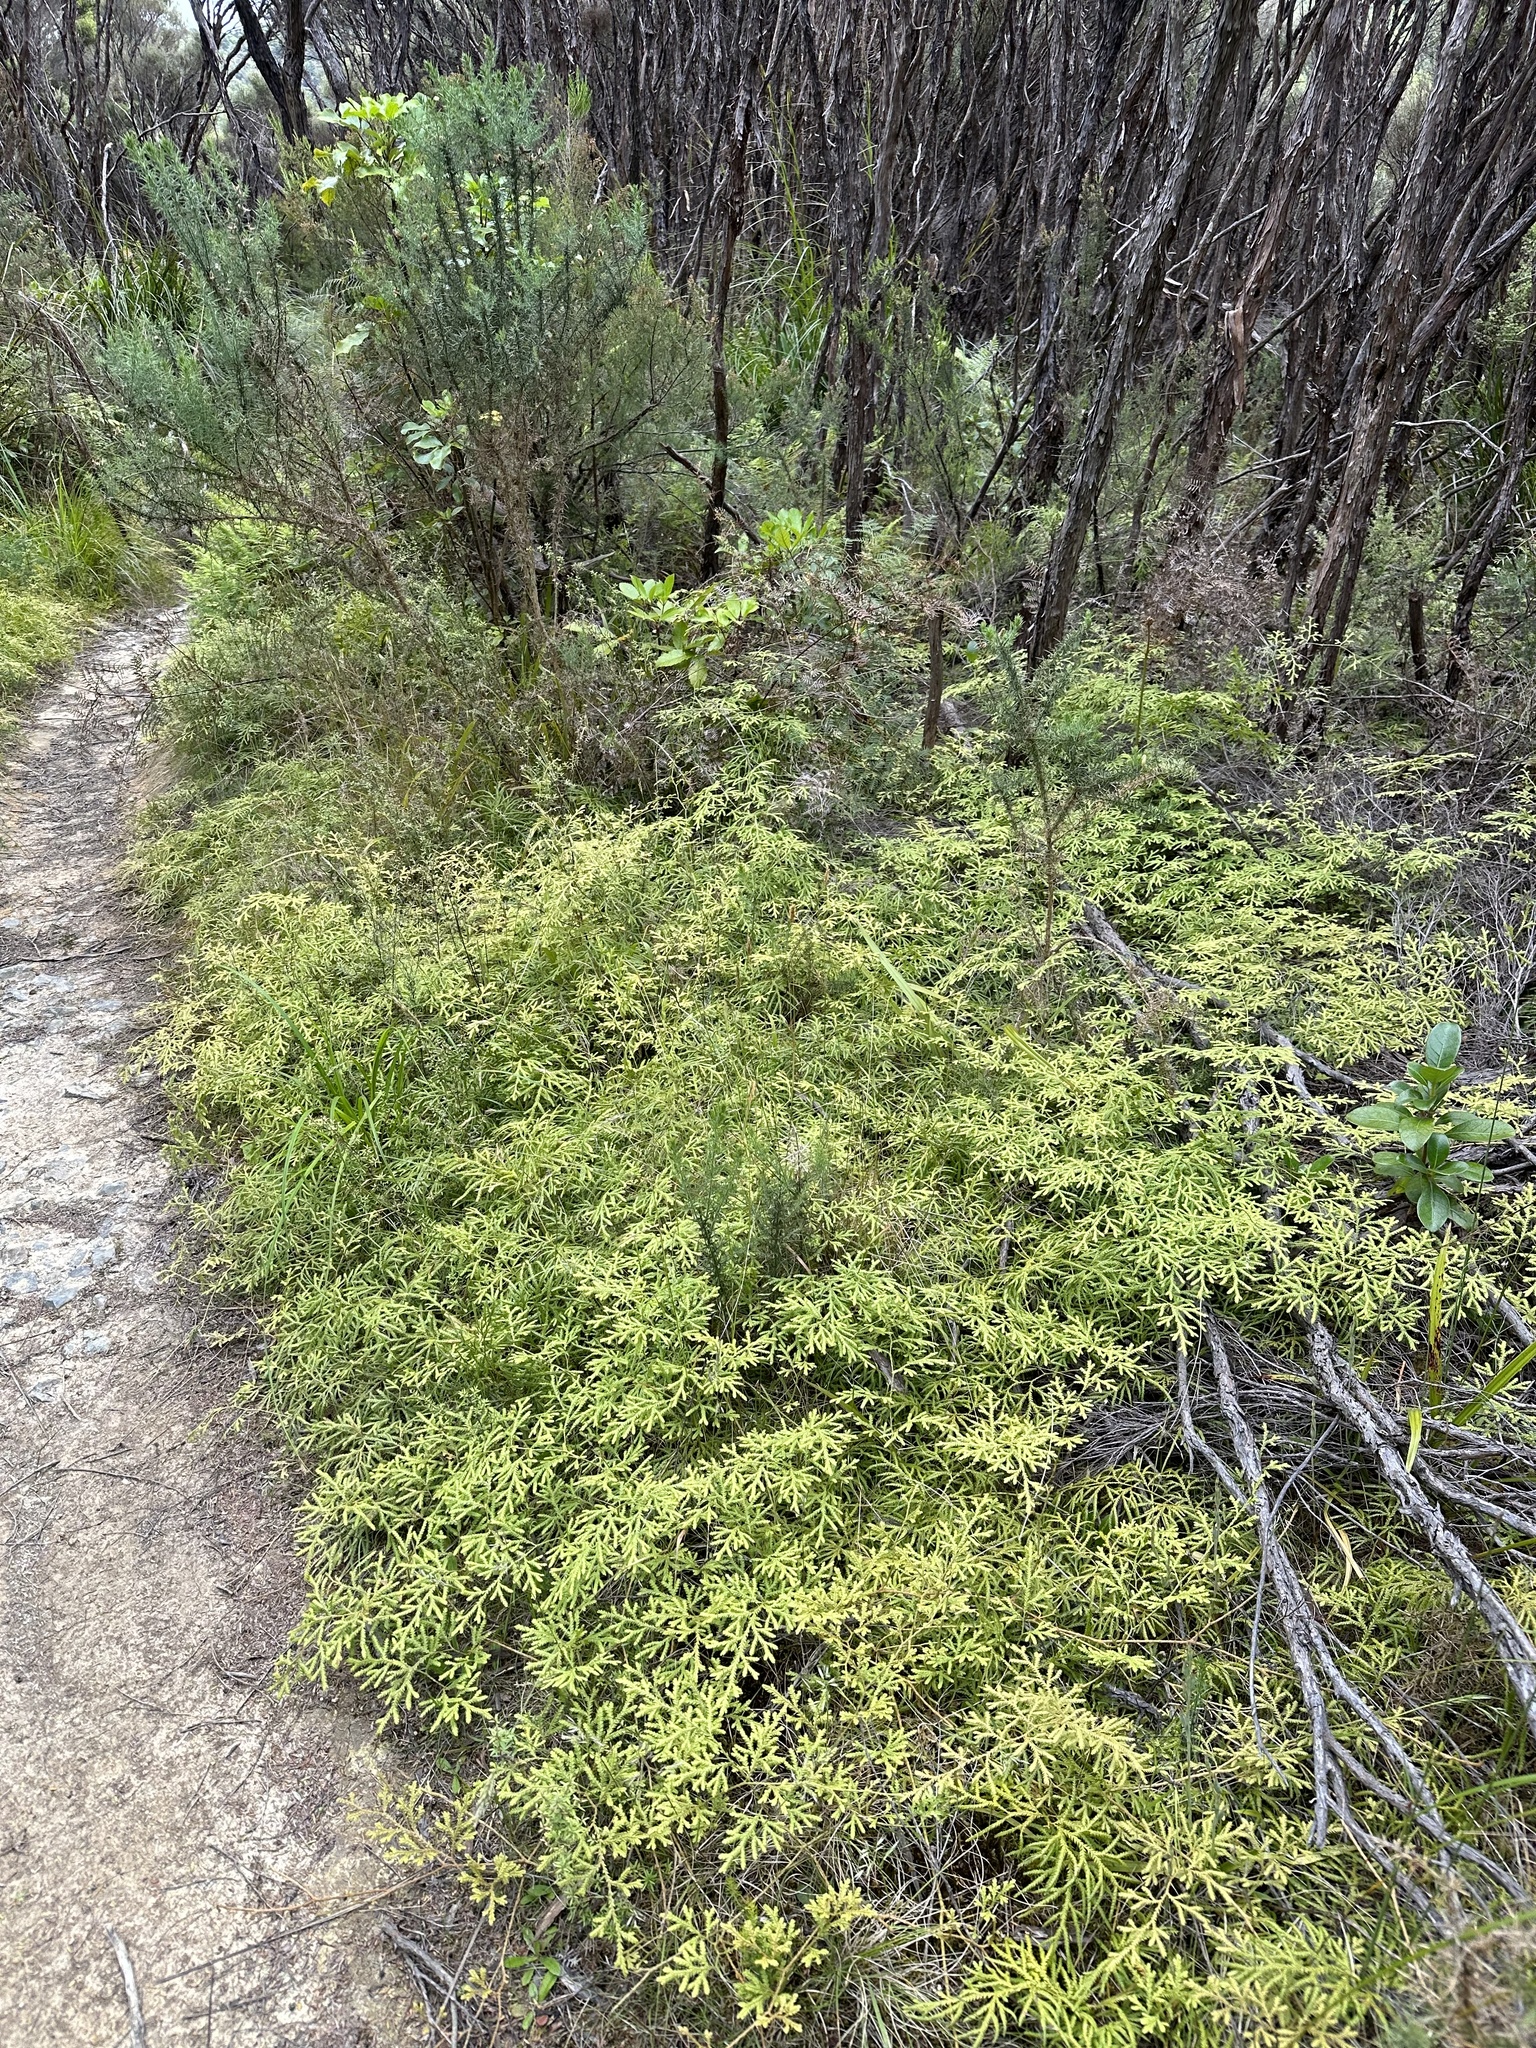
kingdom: Plantae
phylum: Tracheophyta
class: Lycopodiopsida
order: Lycopodiales
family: Lycopodiaceae
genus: Lycopodium
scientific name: Lycopodium volubile
